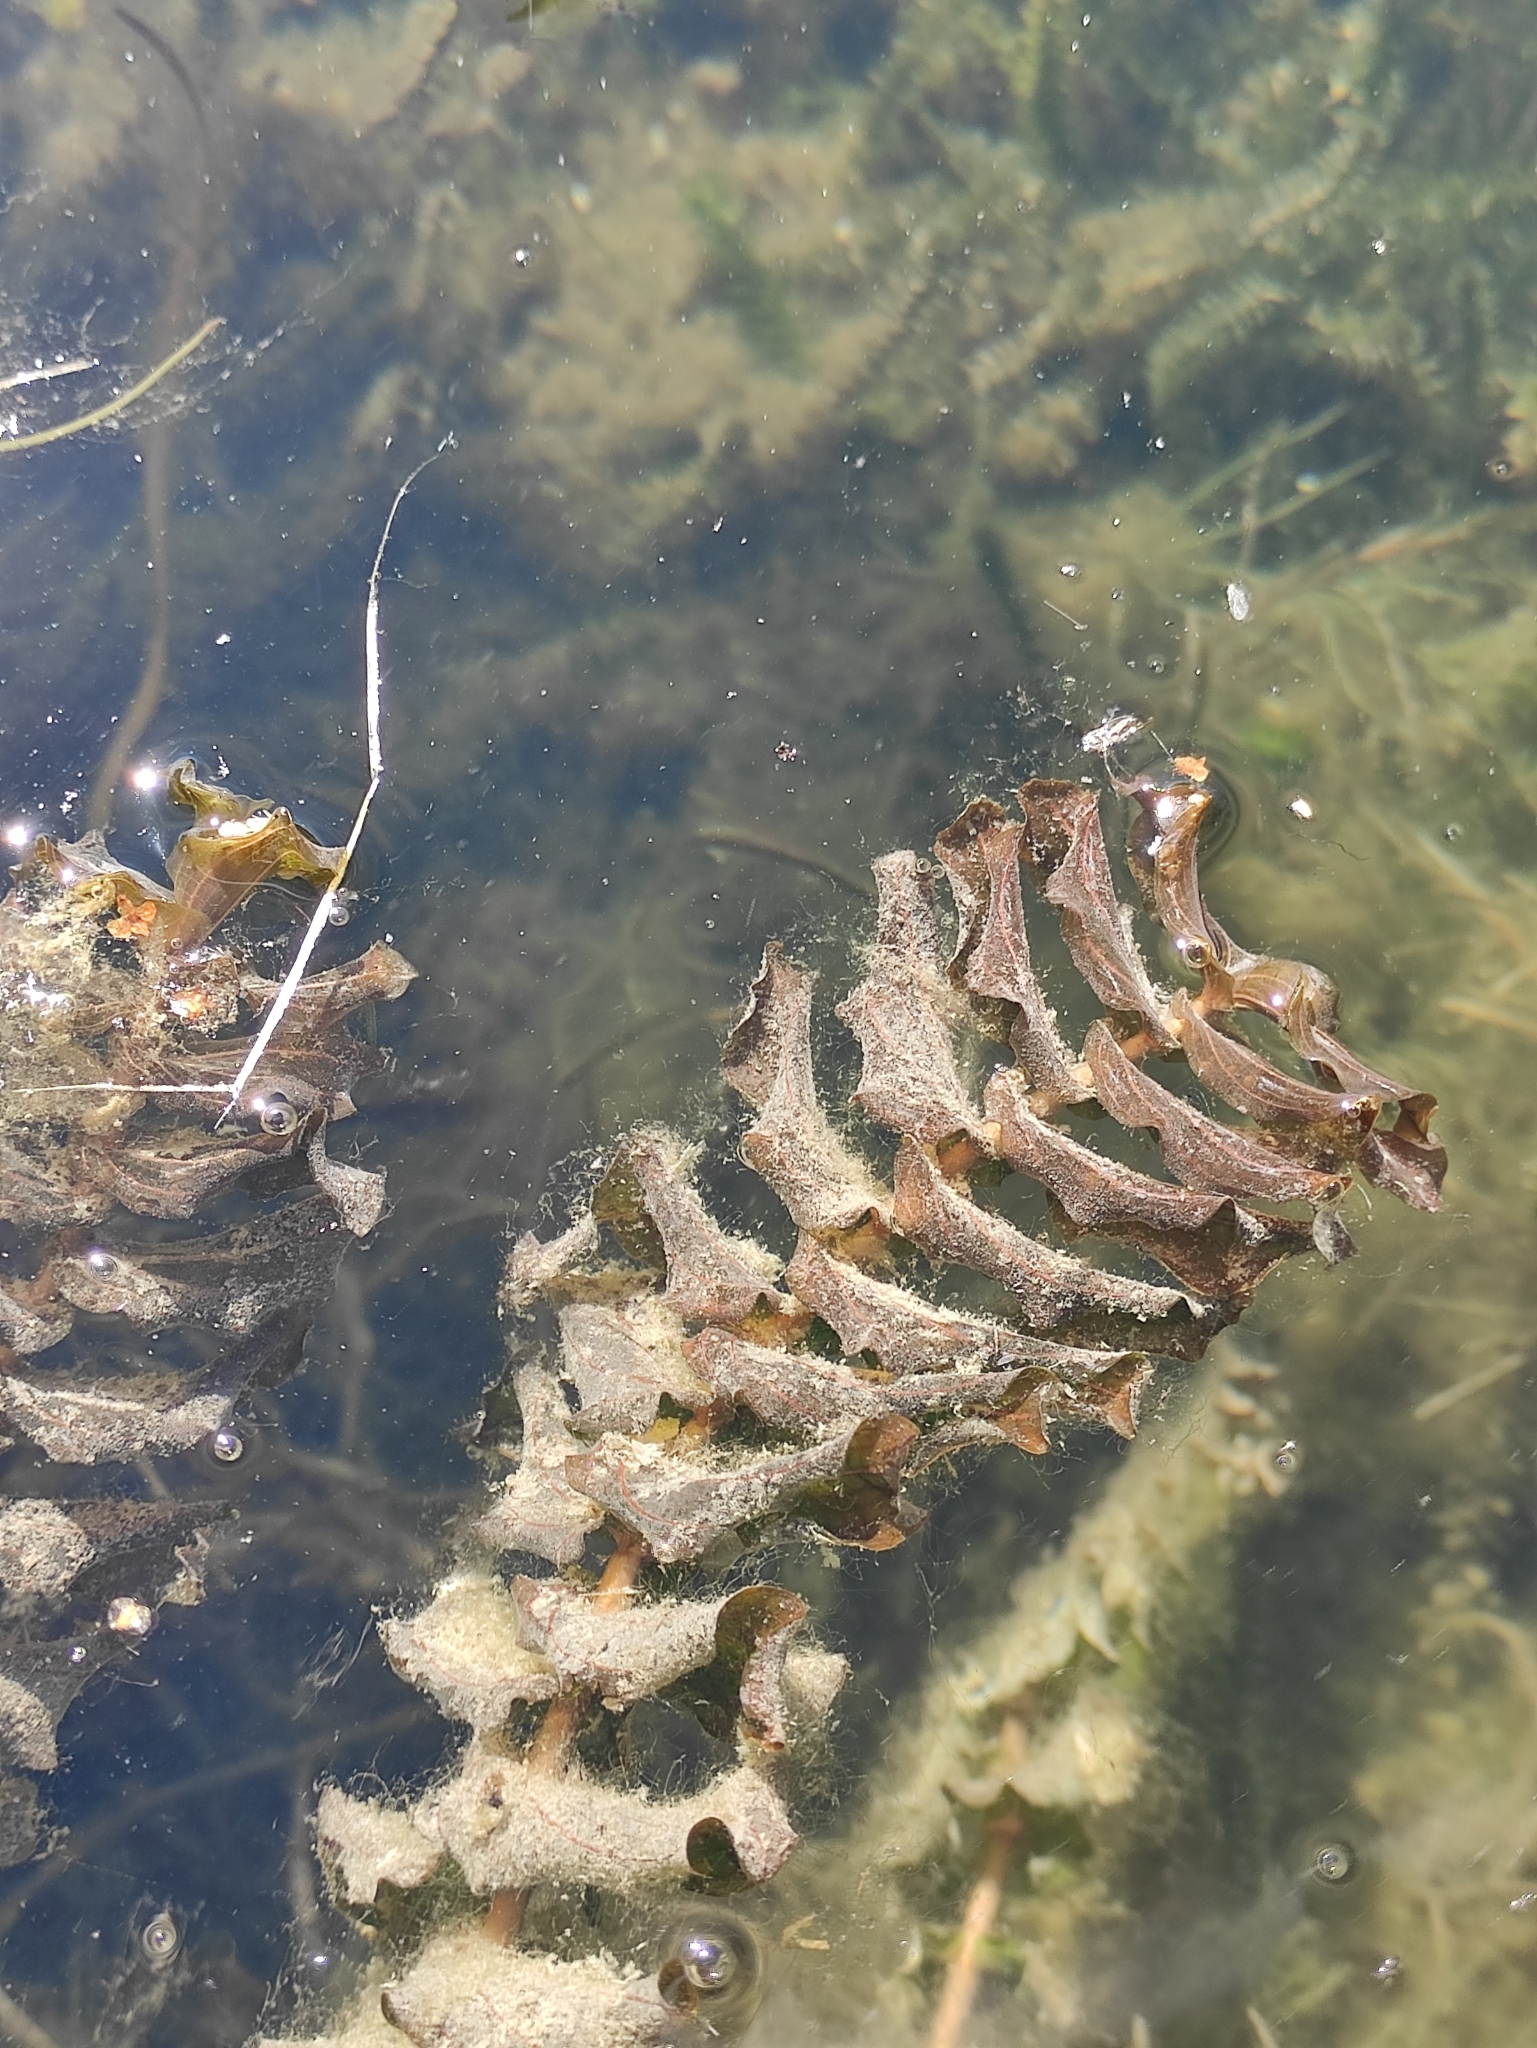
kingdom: Plantae
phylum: Tracheophyta
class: Liliopsida
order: Alismatales
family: Potamogetonaceae
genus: Potamogeton
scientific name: Potamogeton perfoliatus
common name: Perfoliate pondweed
